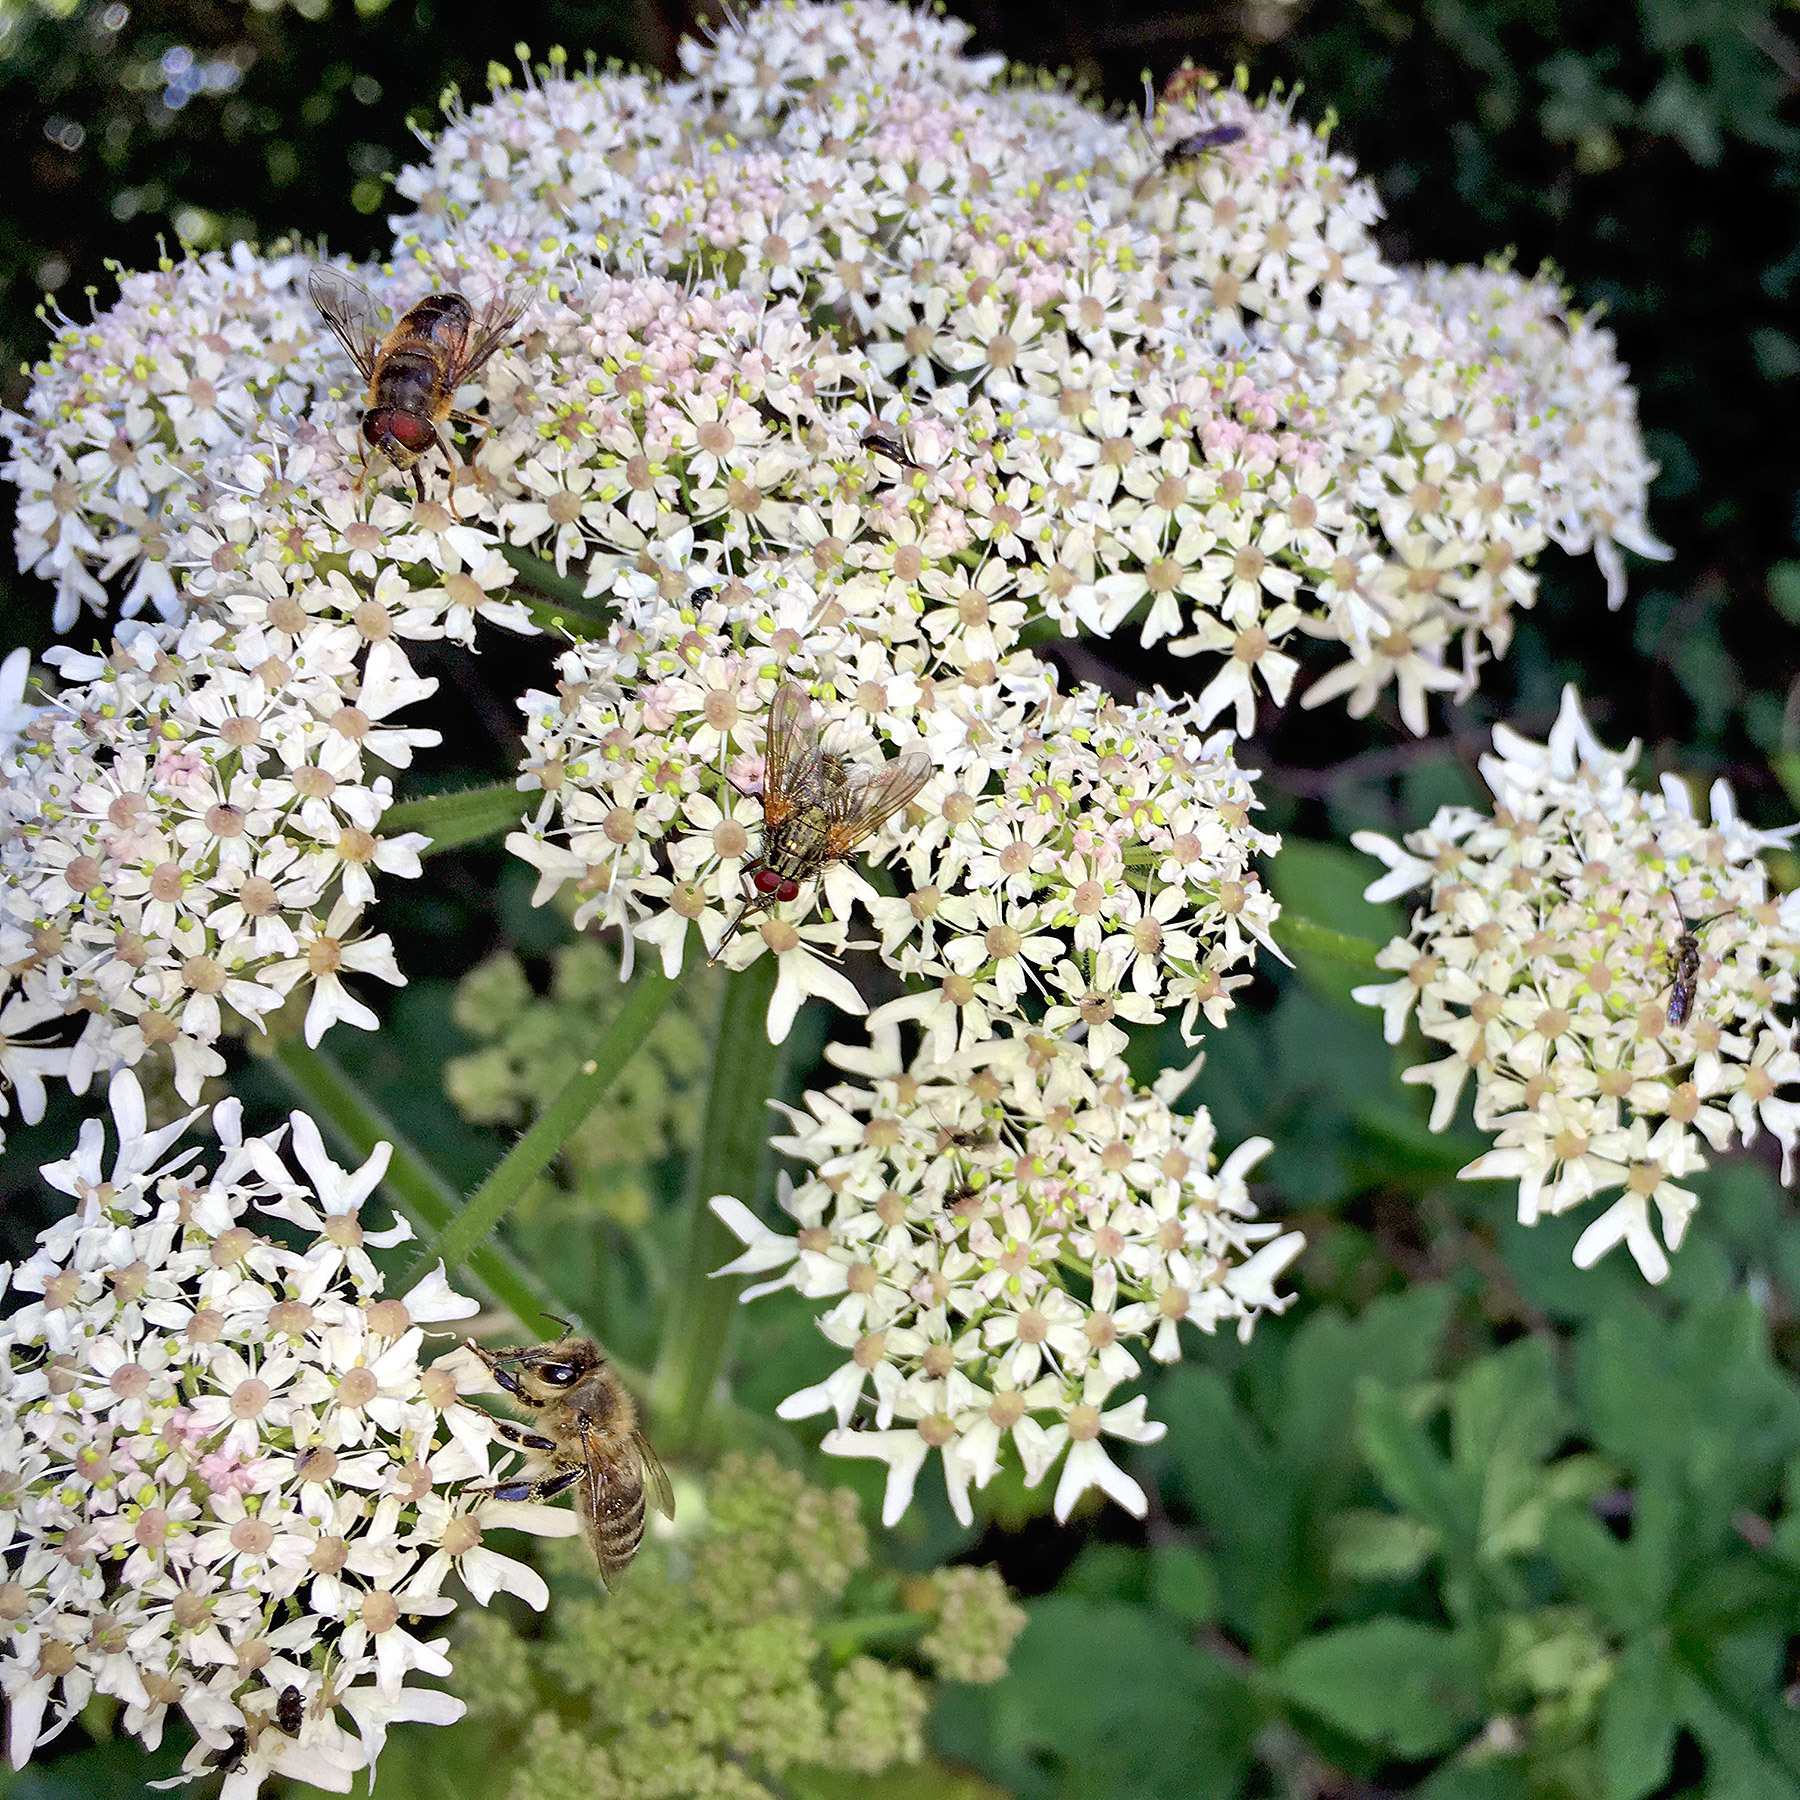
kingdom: Animalia
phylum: Arthropoda
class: Insecta
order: Hymenoptera
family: Apidae
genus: Apis
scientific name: Apis mellifera
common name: Honey bee
